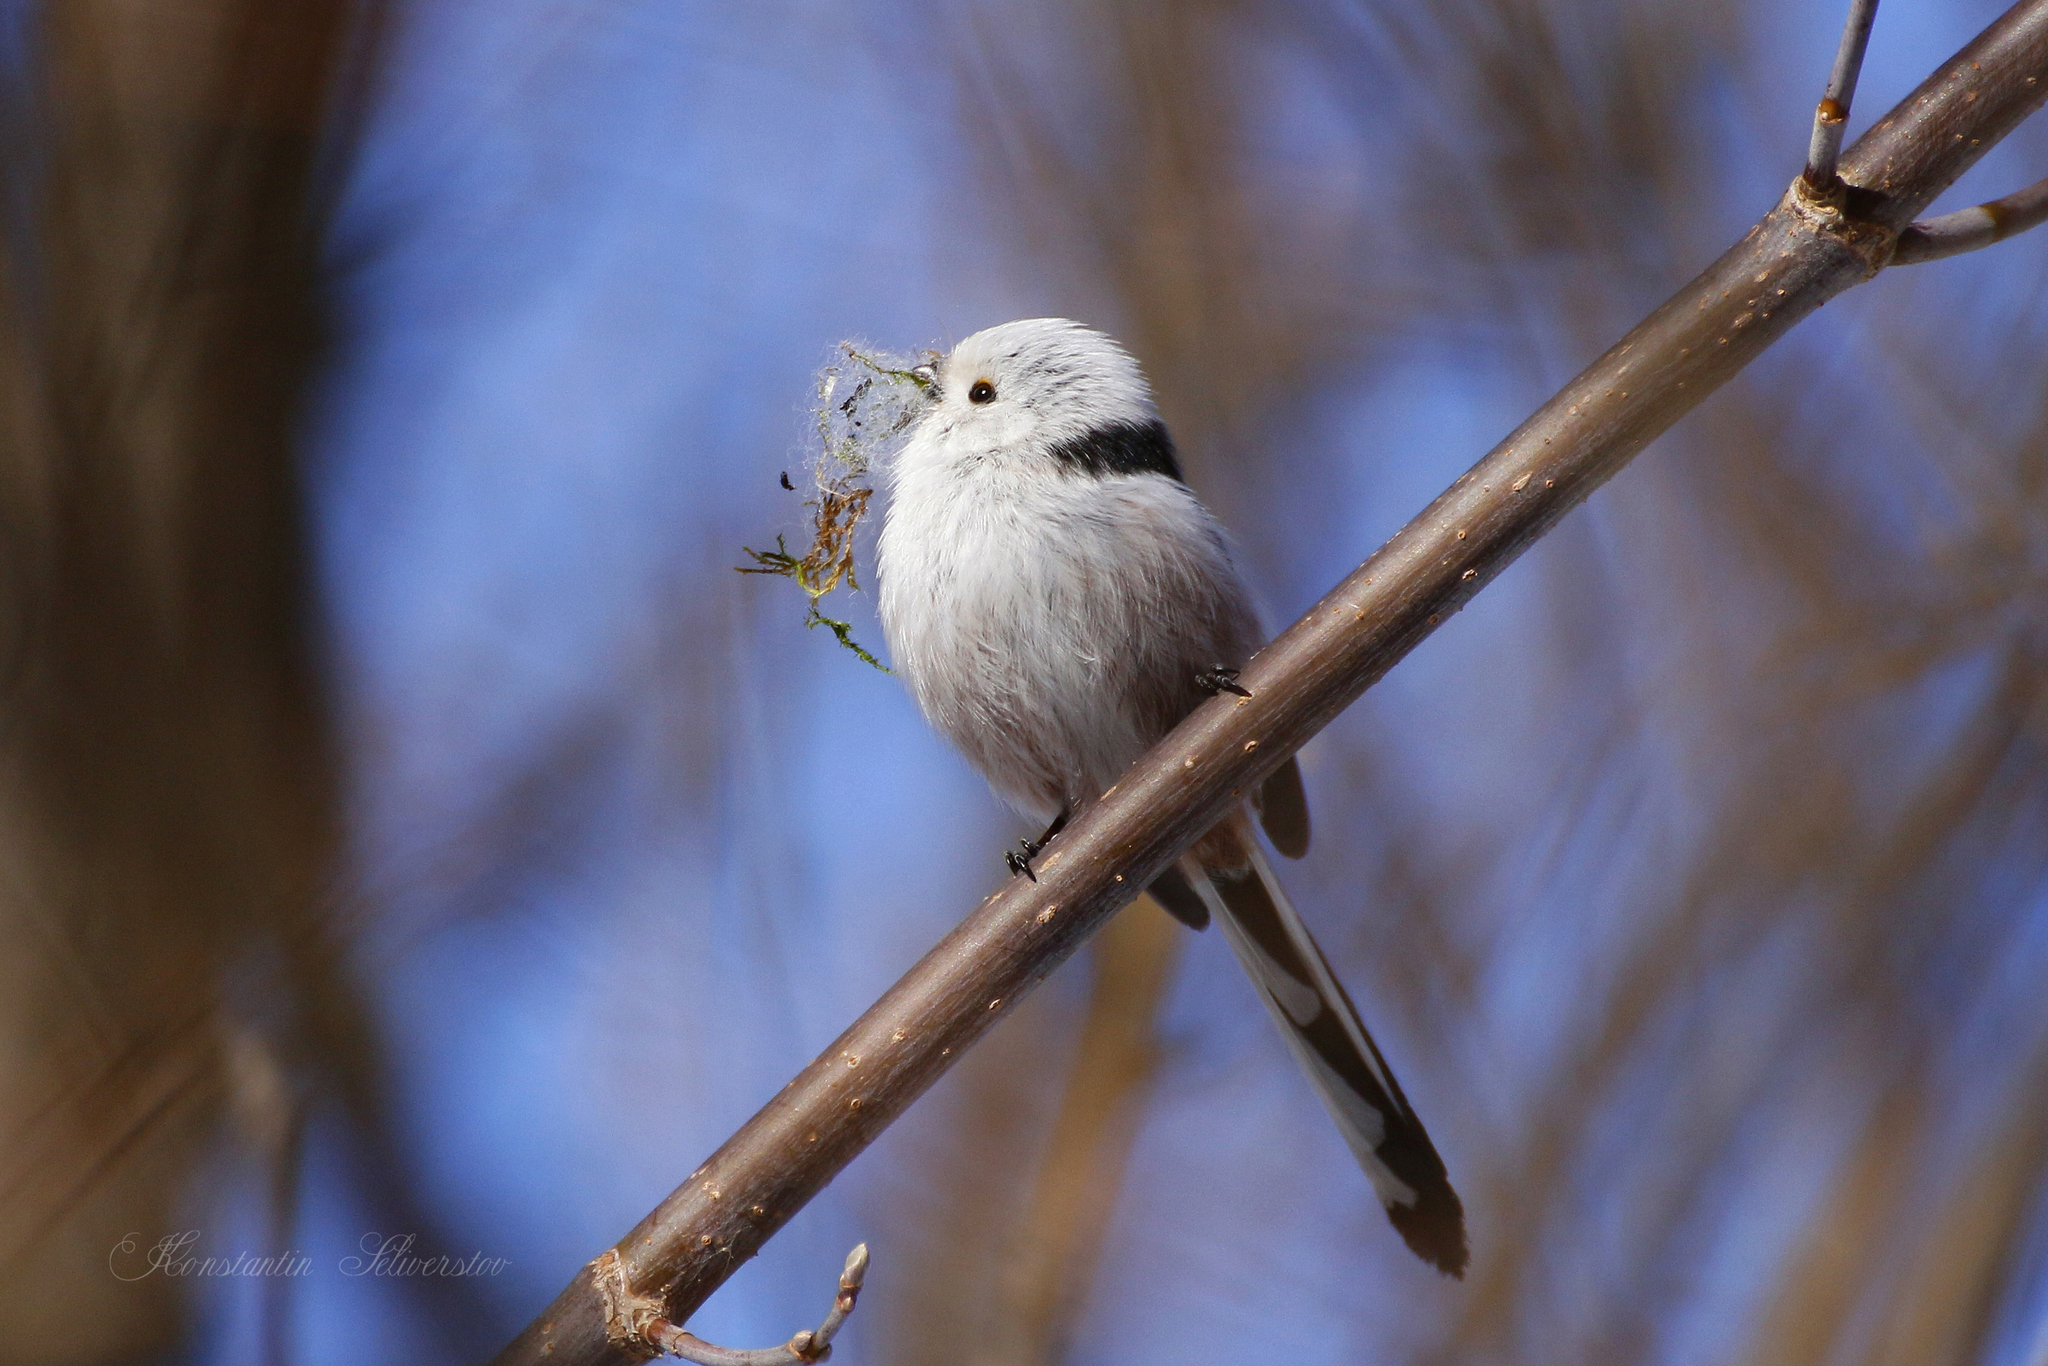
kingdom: Animalia
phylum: Chordata
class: Aves
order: Passeriformes
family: Aegithalidae
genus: Aegithalos
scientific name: Aegithalos caudatus
